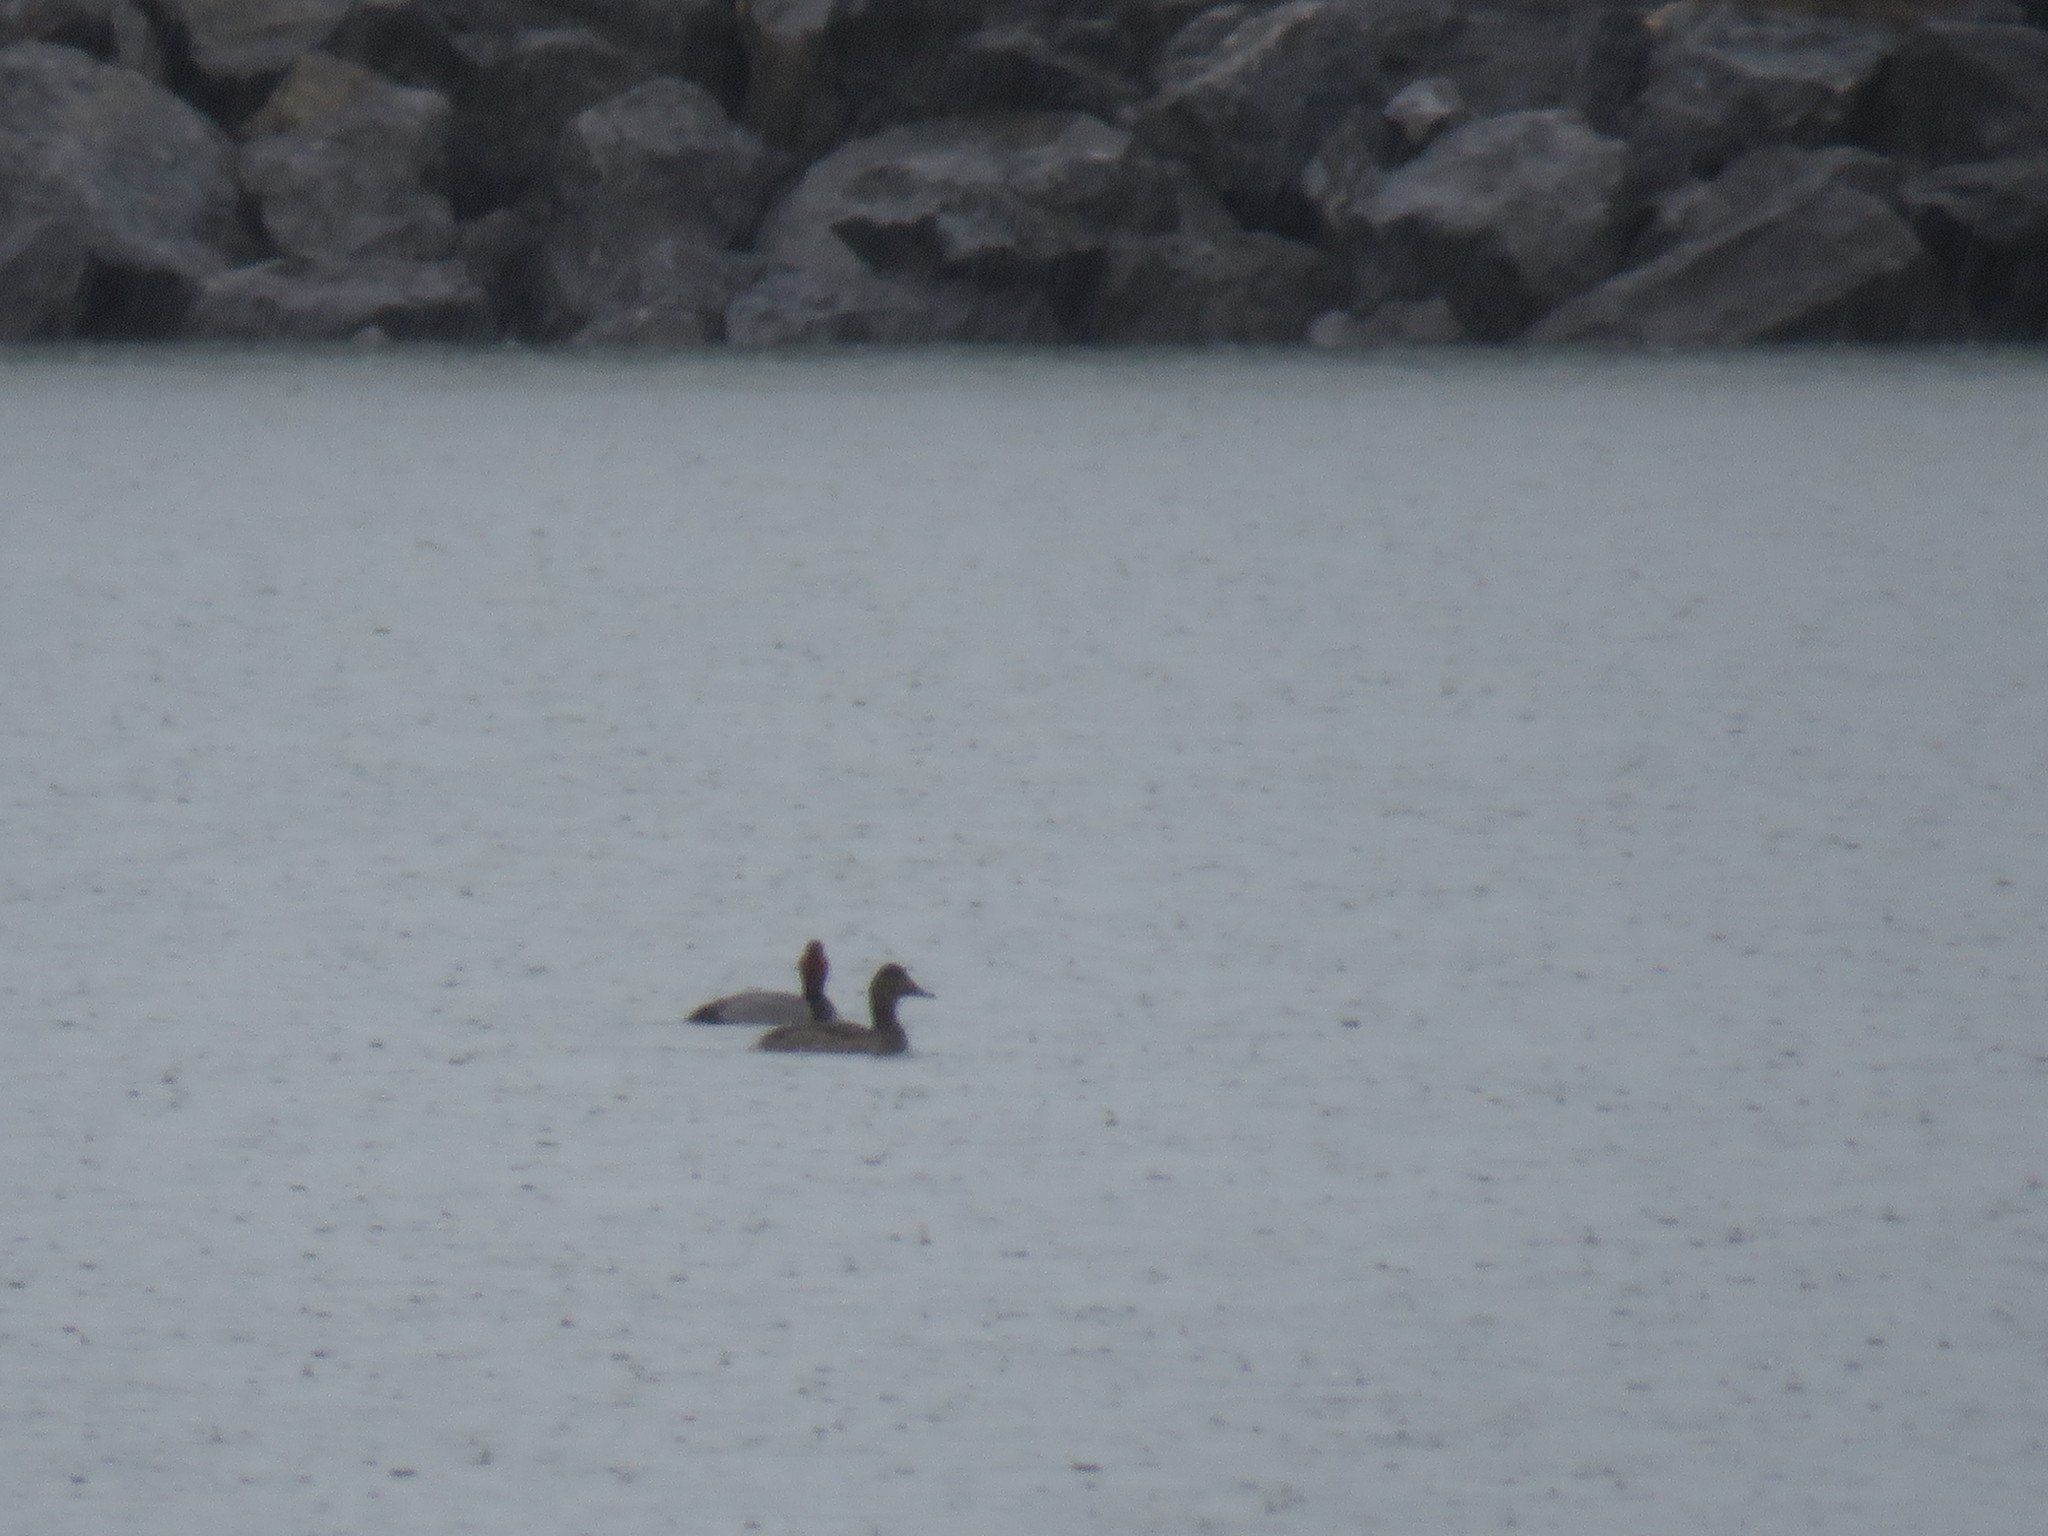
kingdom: Animalia
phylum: Chordata
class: Aves
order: Anseriformes
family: Anatidae
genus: Aythya
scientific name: Aythya americana
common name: Redhead
